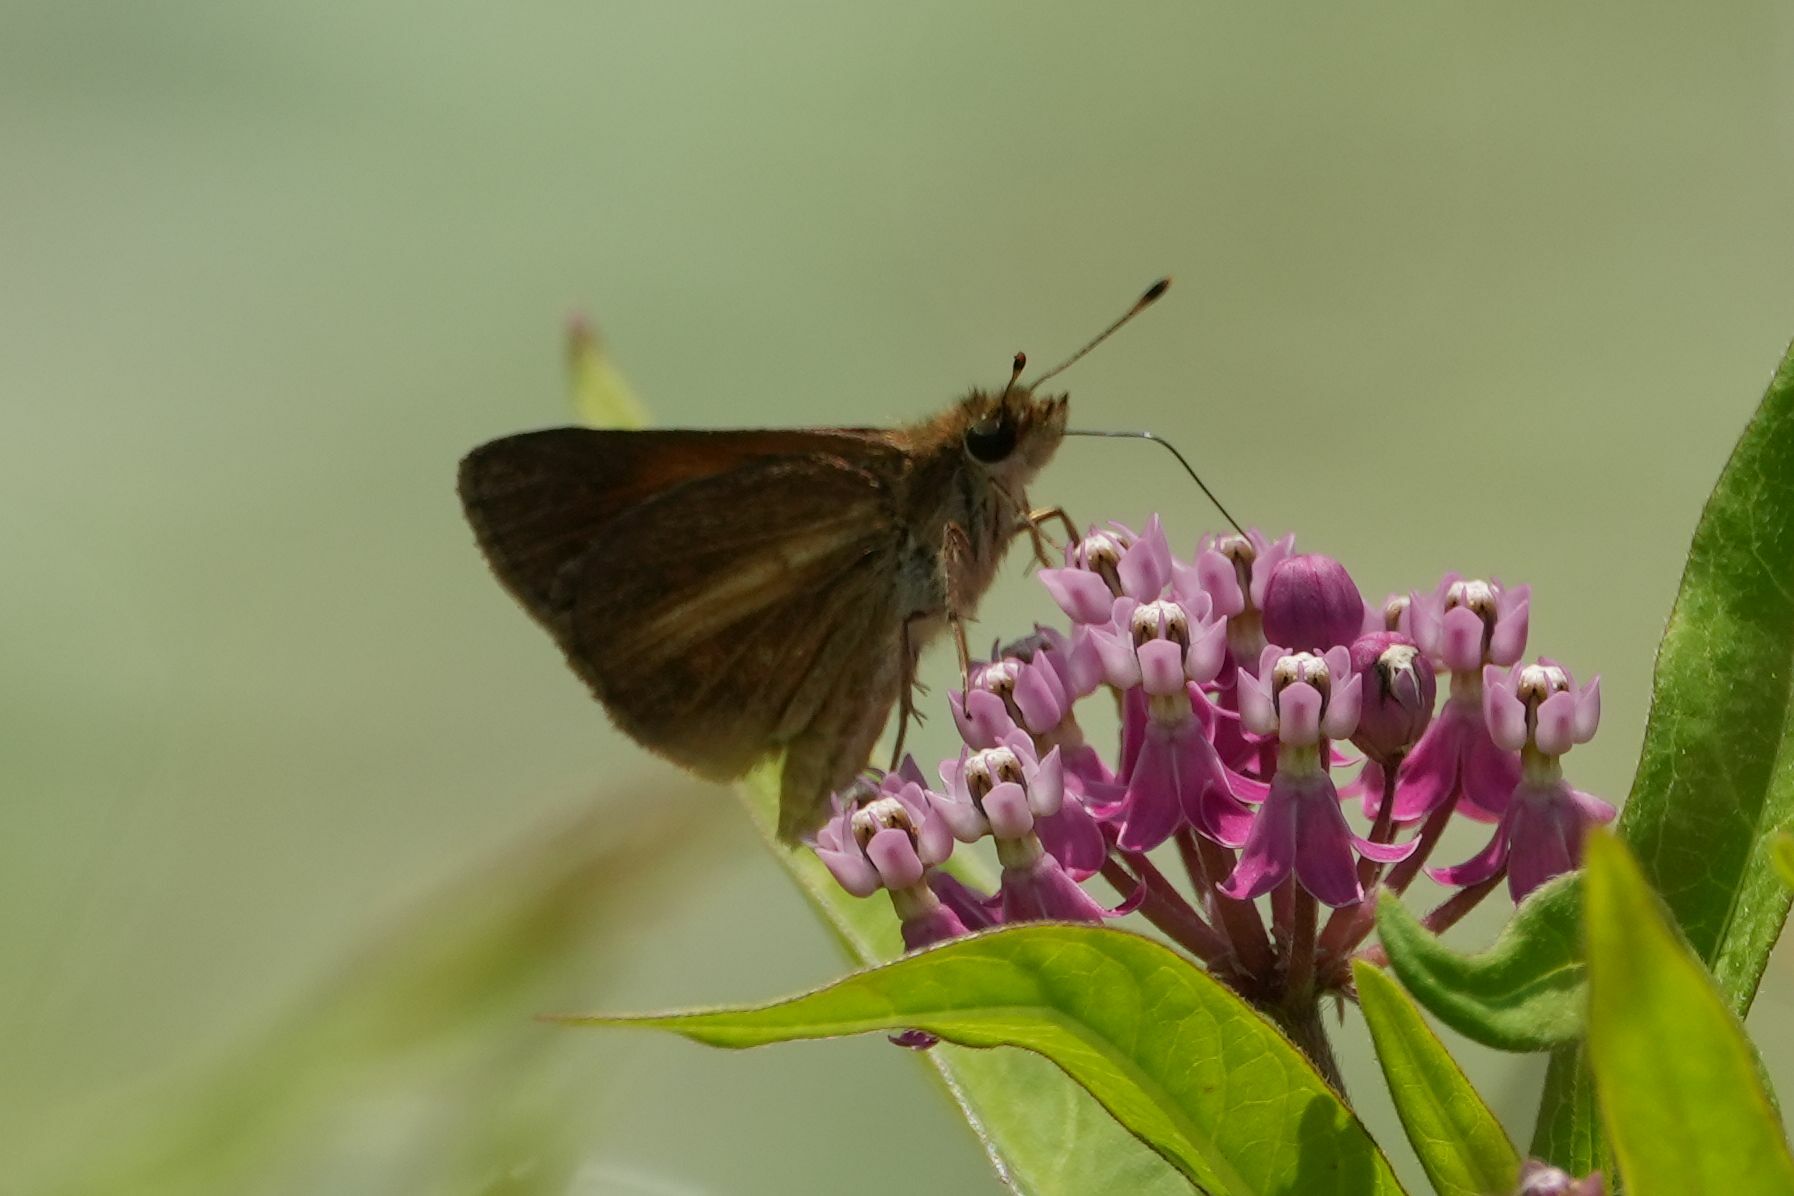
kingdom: Animalia
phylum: Arthropoda
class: Insecta
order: Lepidoptera
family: Hesperiidae
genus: Poanes
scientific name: Poanes viator
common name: Broad-winged skipper
